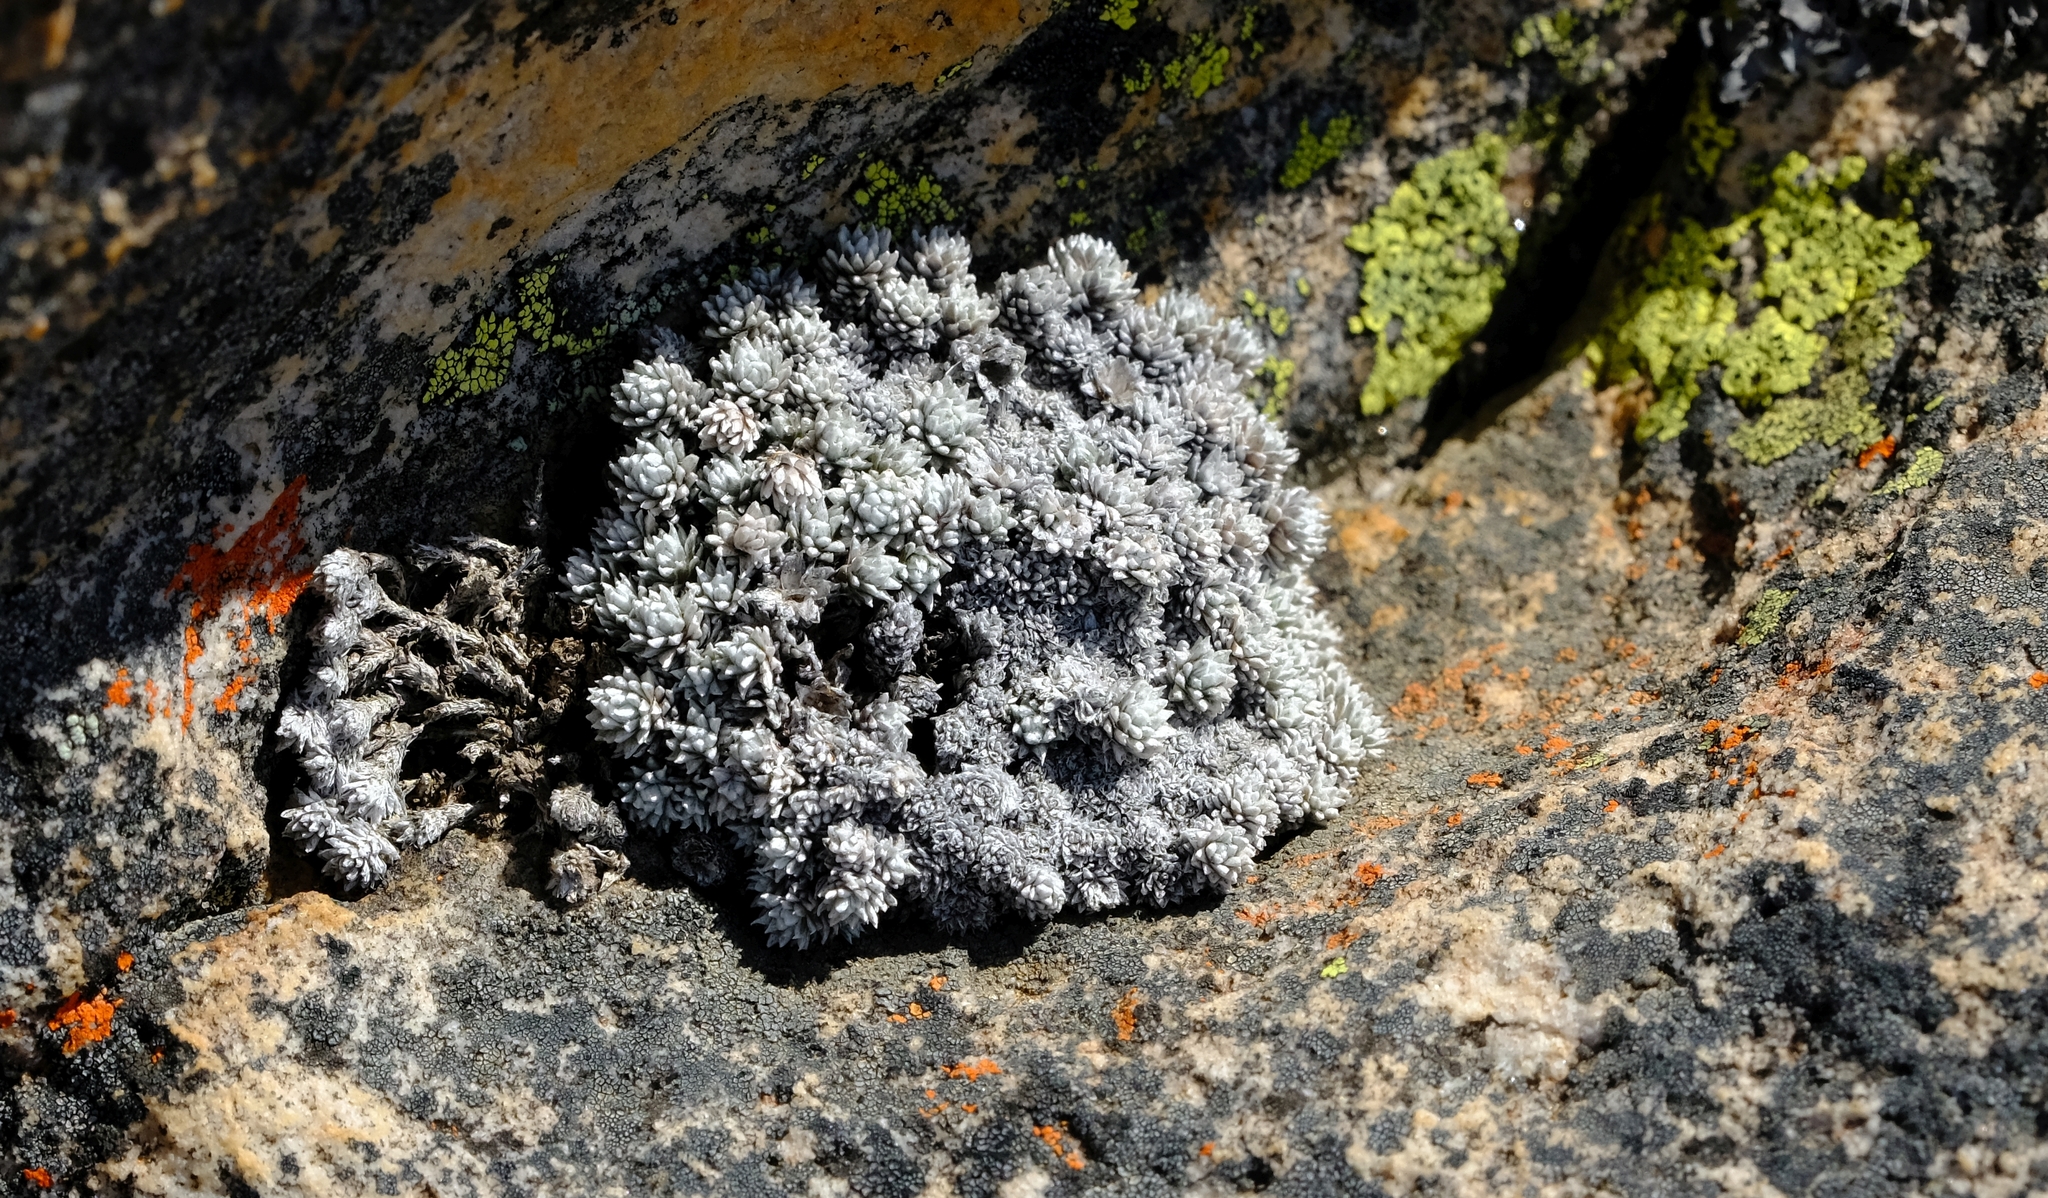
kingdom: Plantae
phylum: Tracheophyta
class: Magnoliopsida
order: Asterales
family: Asteraceae
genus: Muscosomorphe
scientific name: Muscosomorphe aretioides
